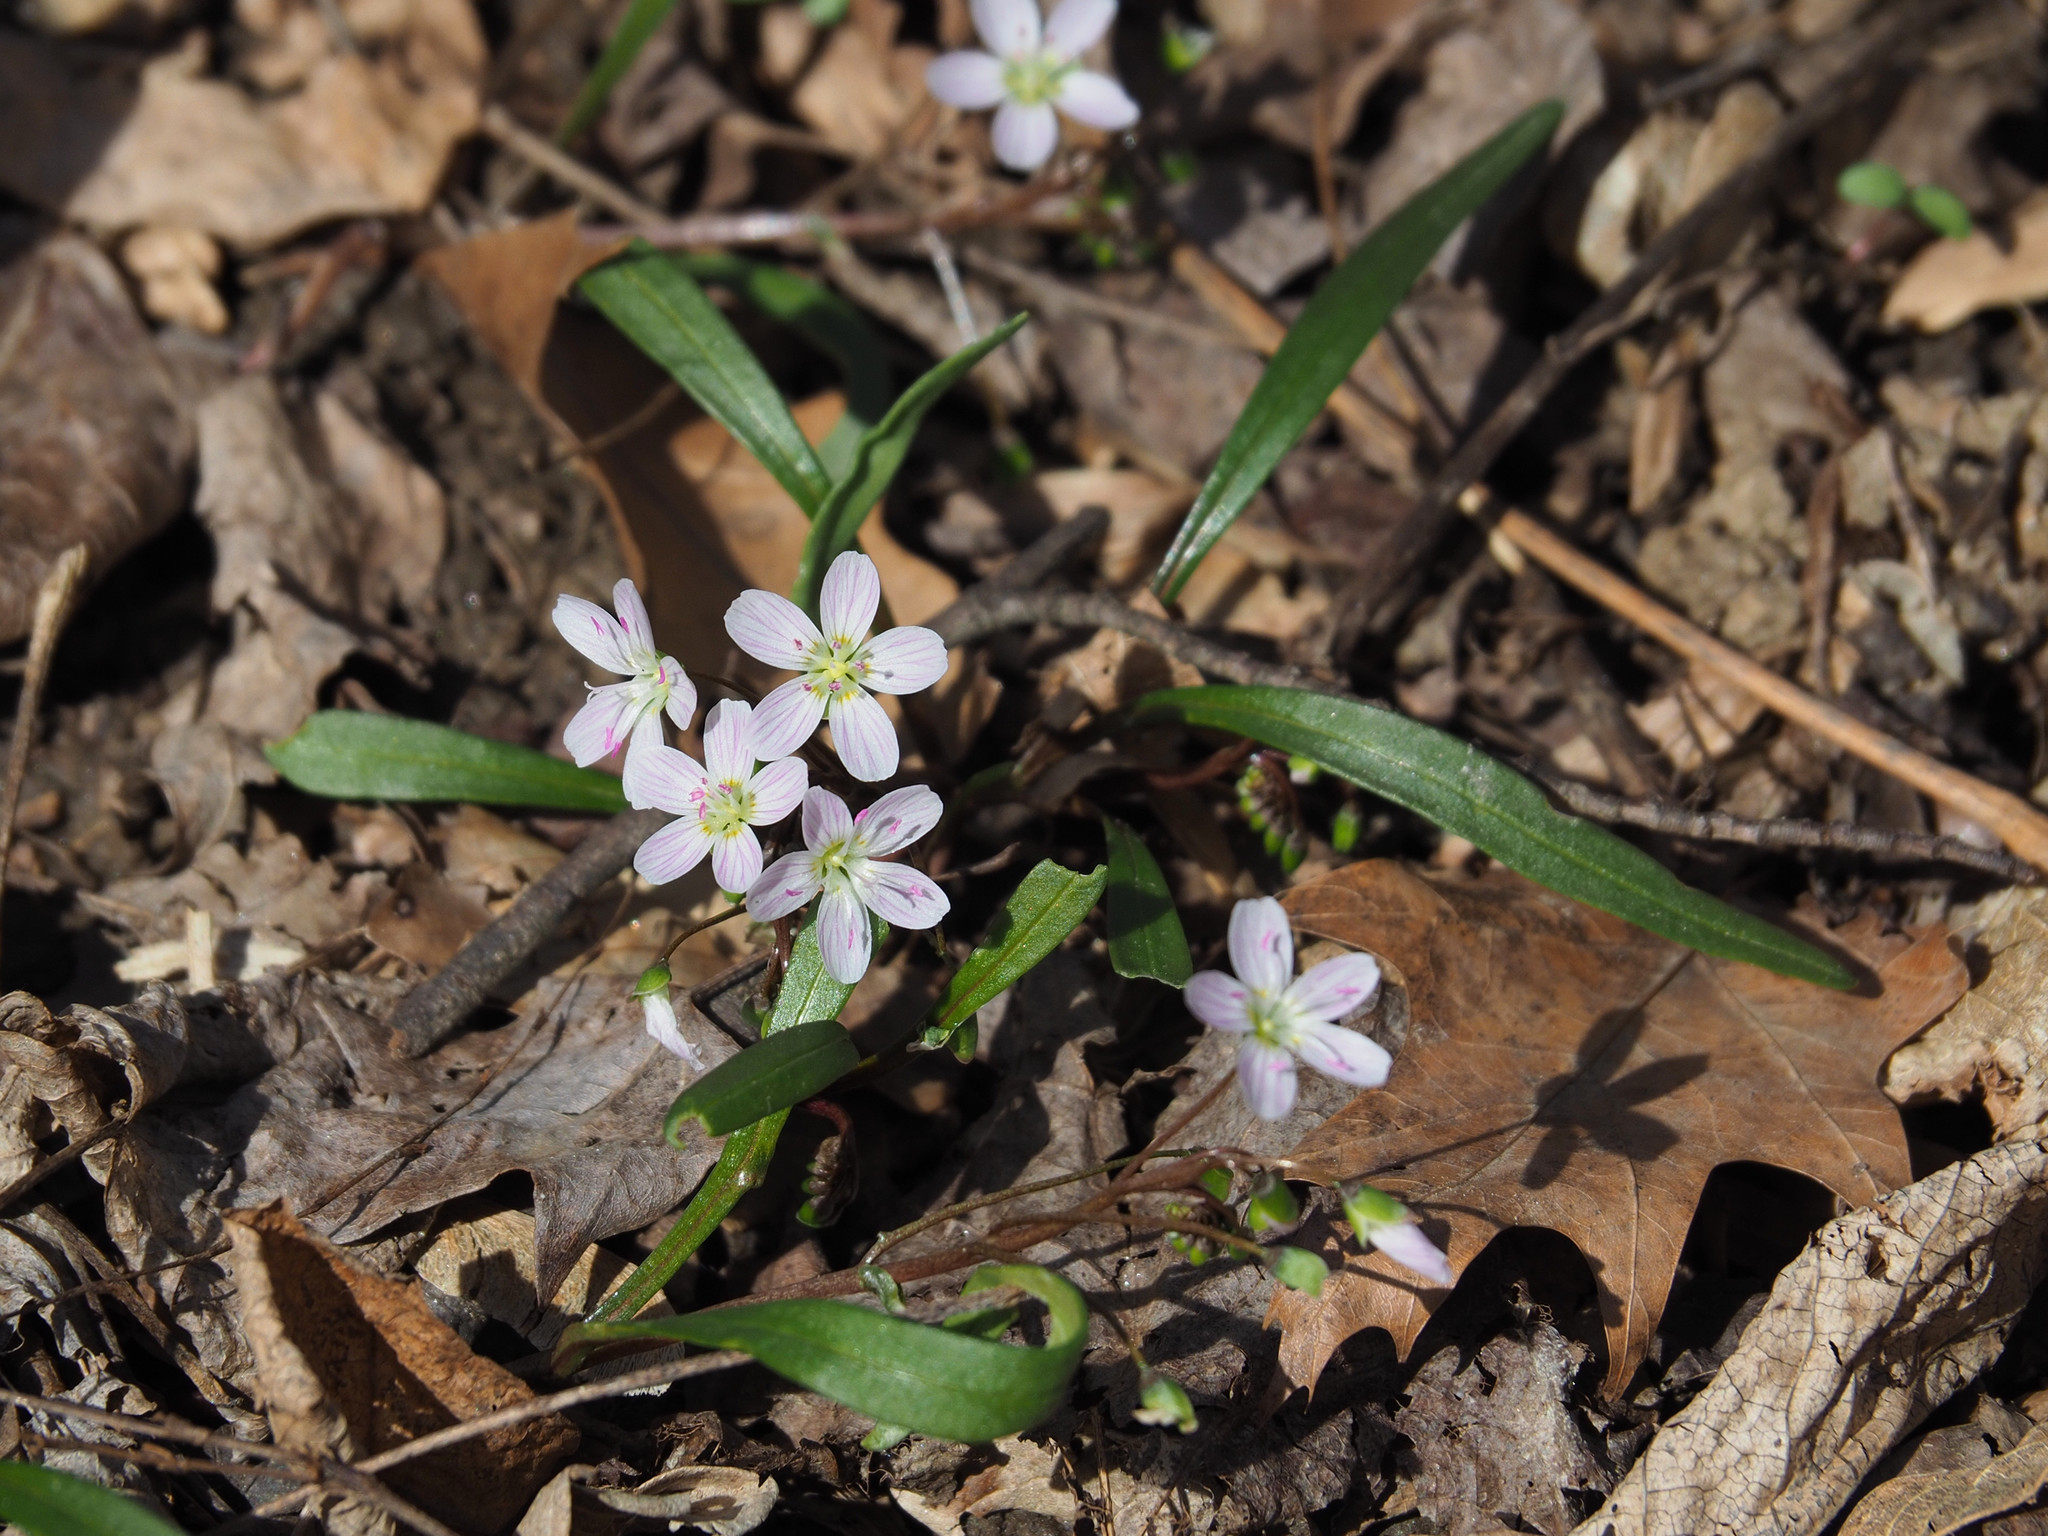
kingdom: Plantae
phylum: Tracheophyta
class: Magnoliopsida
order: Caryophyllales
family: Montiaceae
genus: Claytonia
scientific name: Claytonia virginica
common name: Virginia springbeauty
